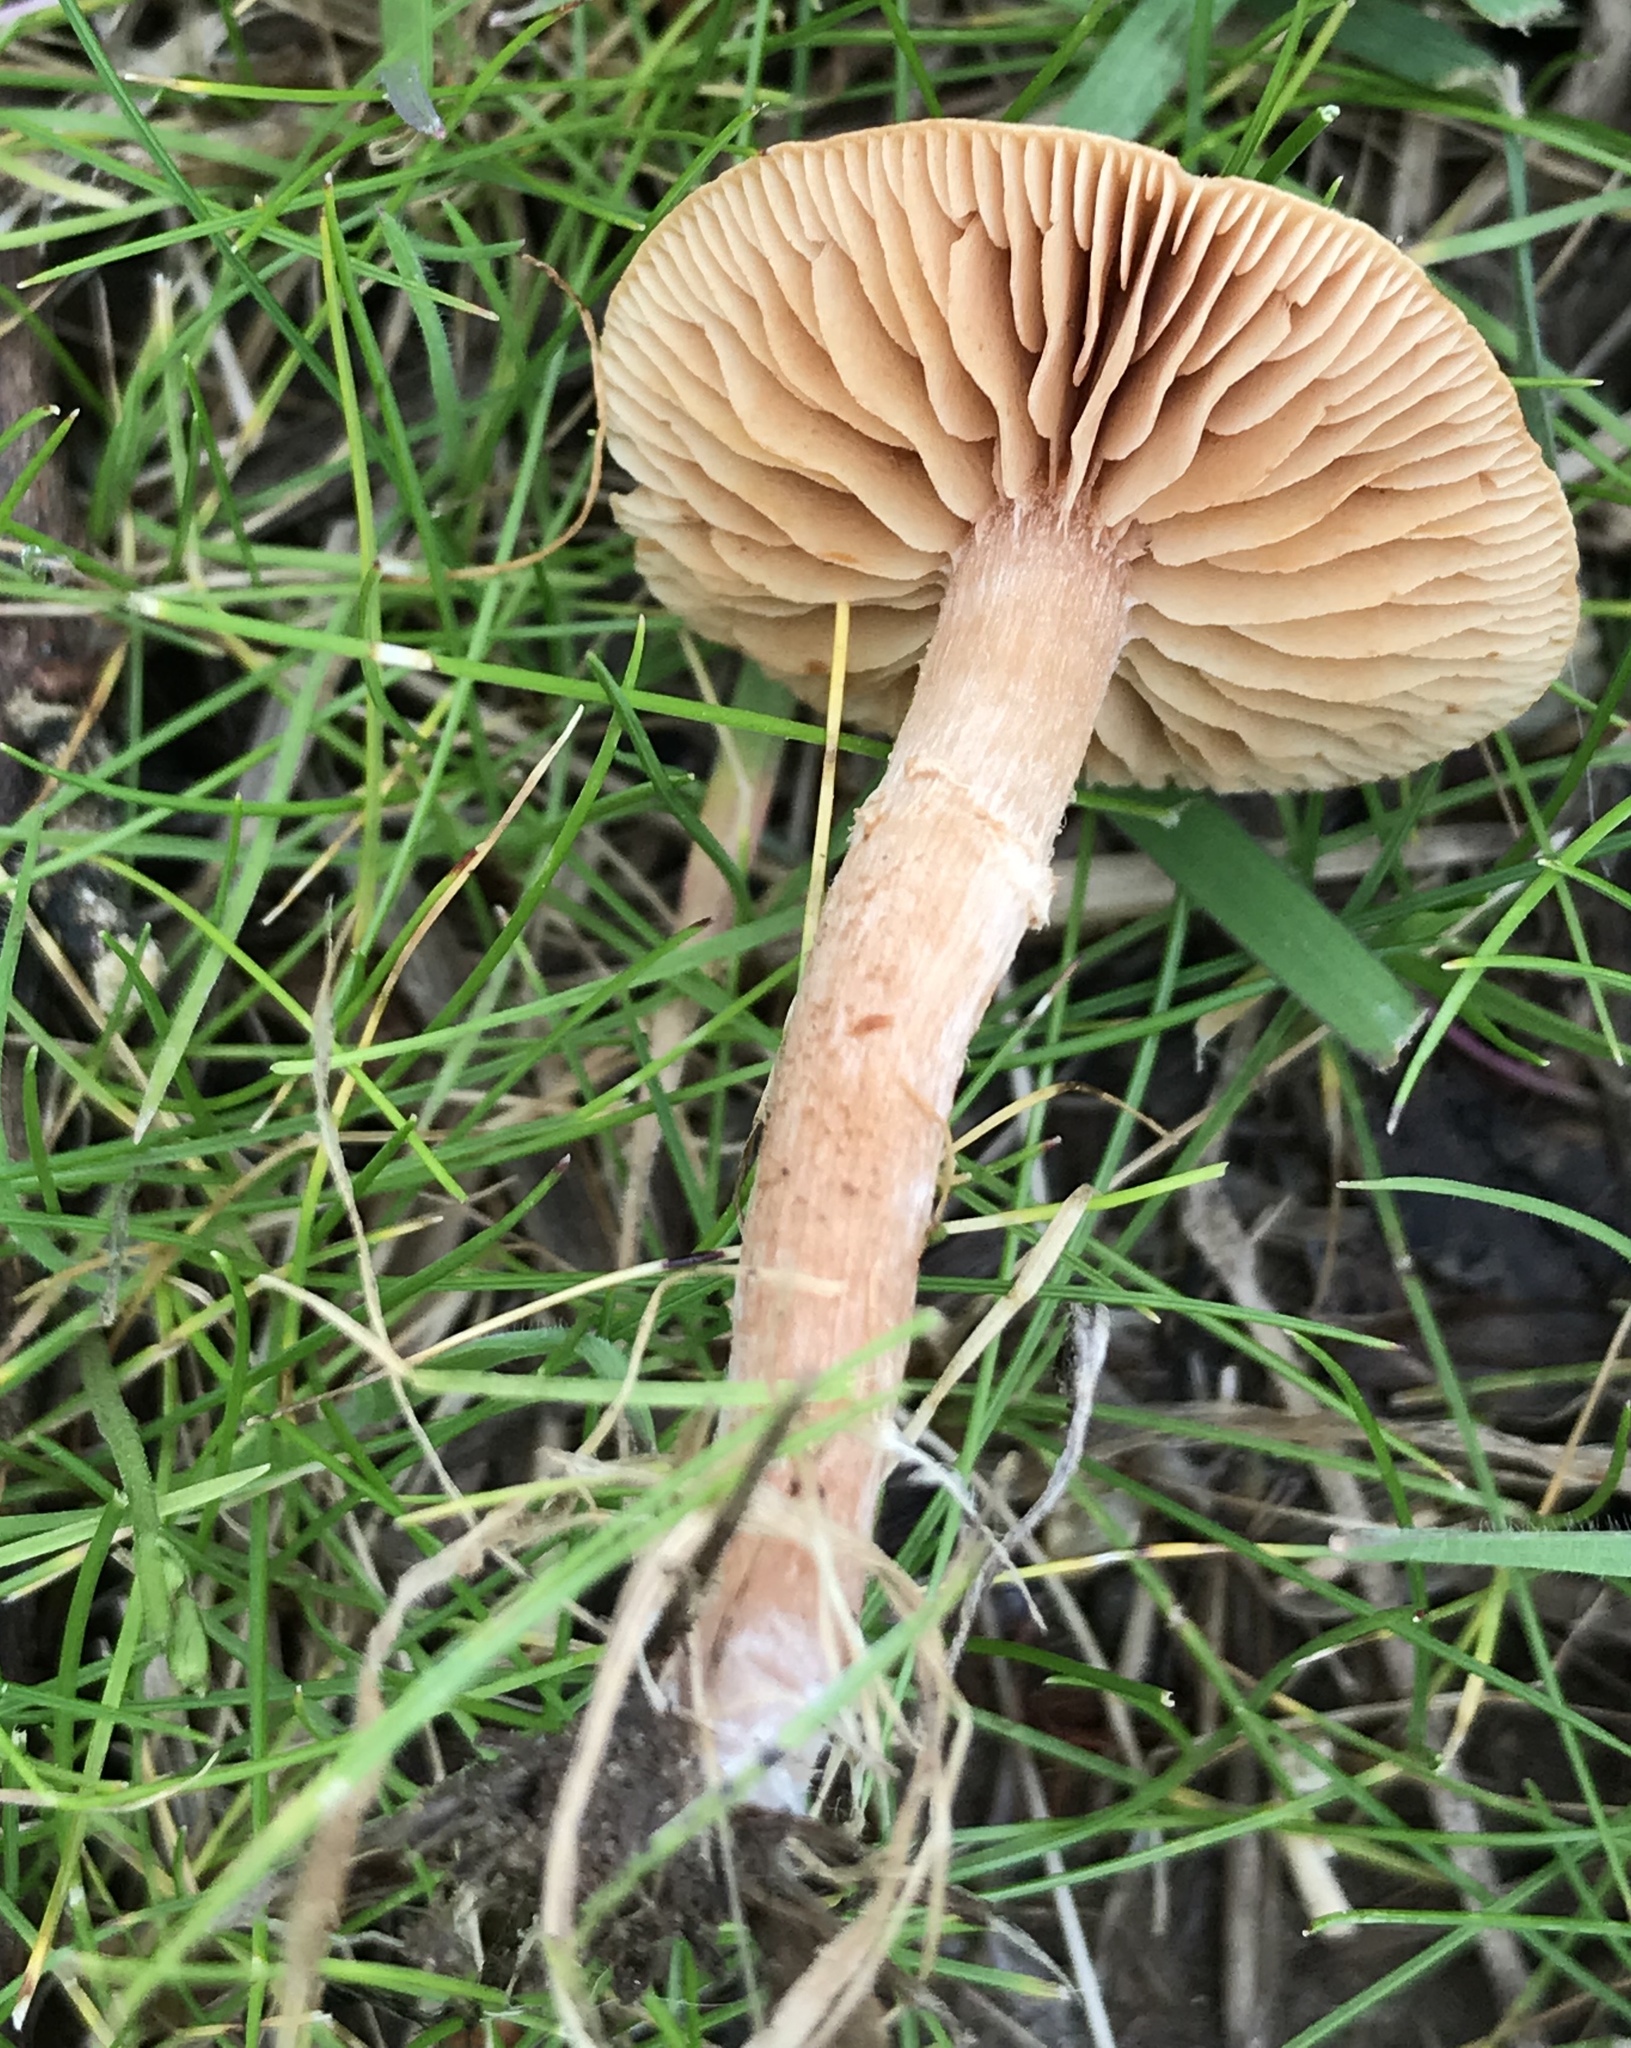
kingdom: Fungi
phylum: Basidiomycota
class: Agaricomycetes
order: Agaricales
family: Tubariaceae
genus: Tubaria
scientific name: Tubaria furfuracea
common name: Scurfy twiglet
